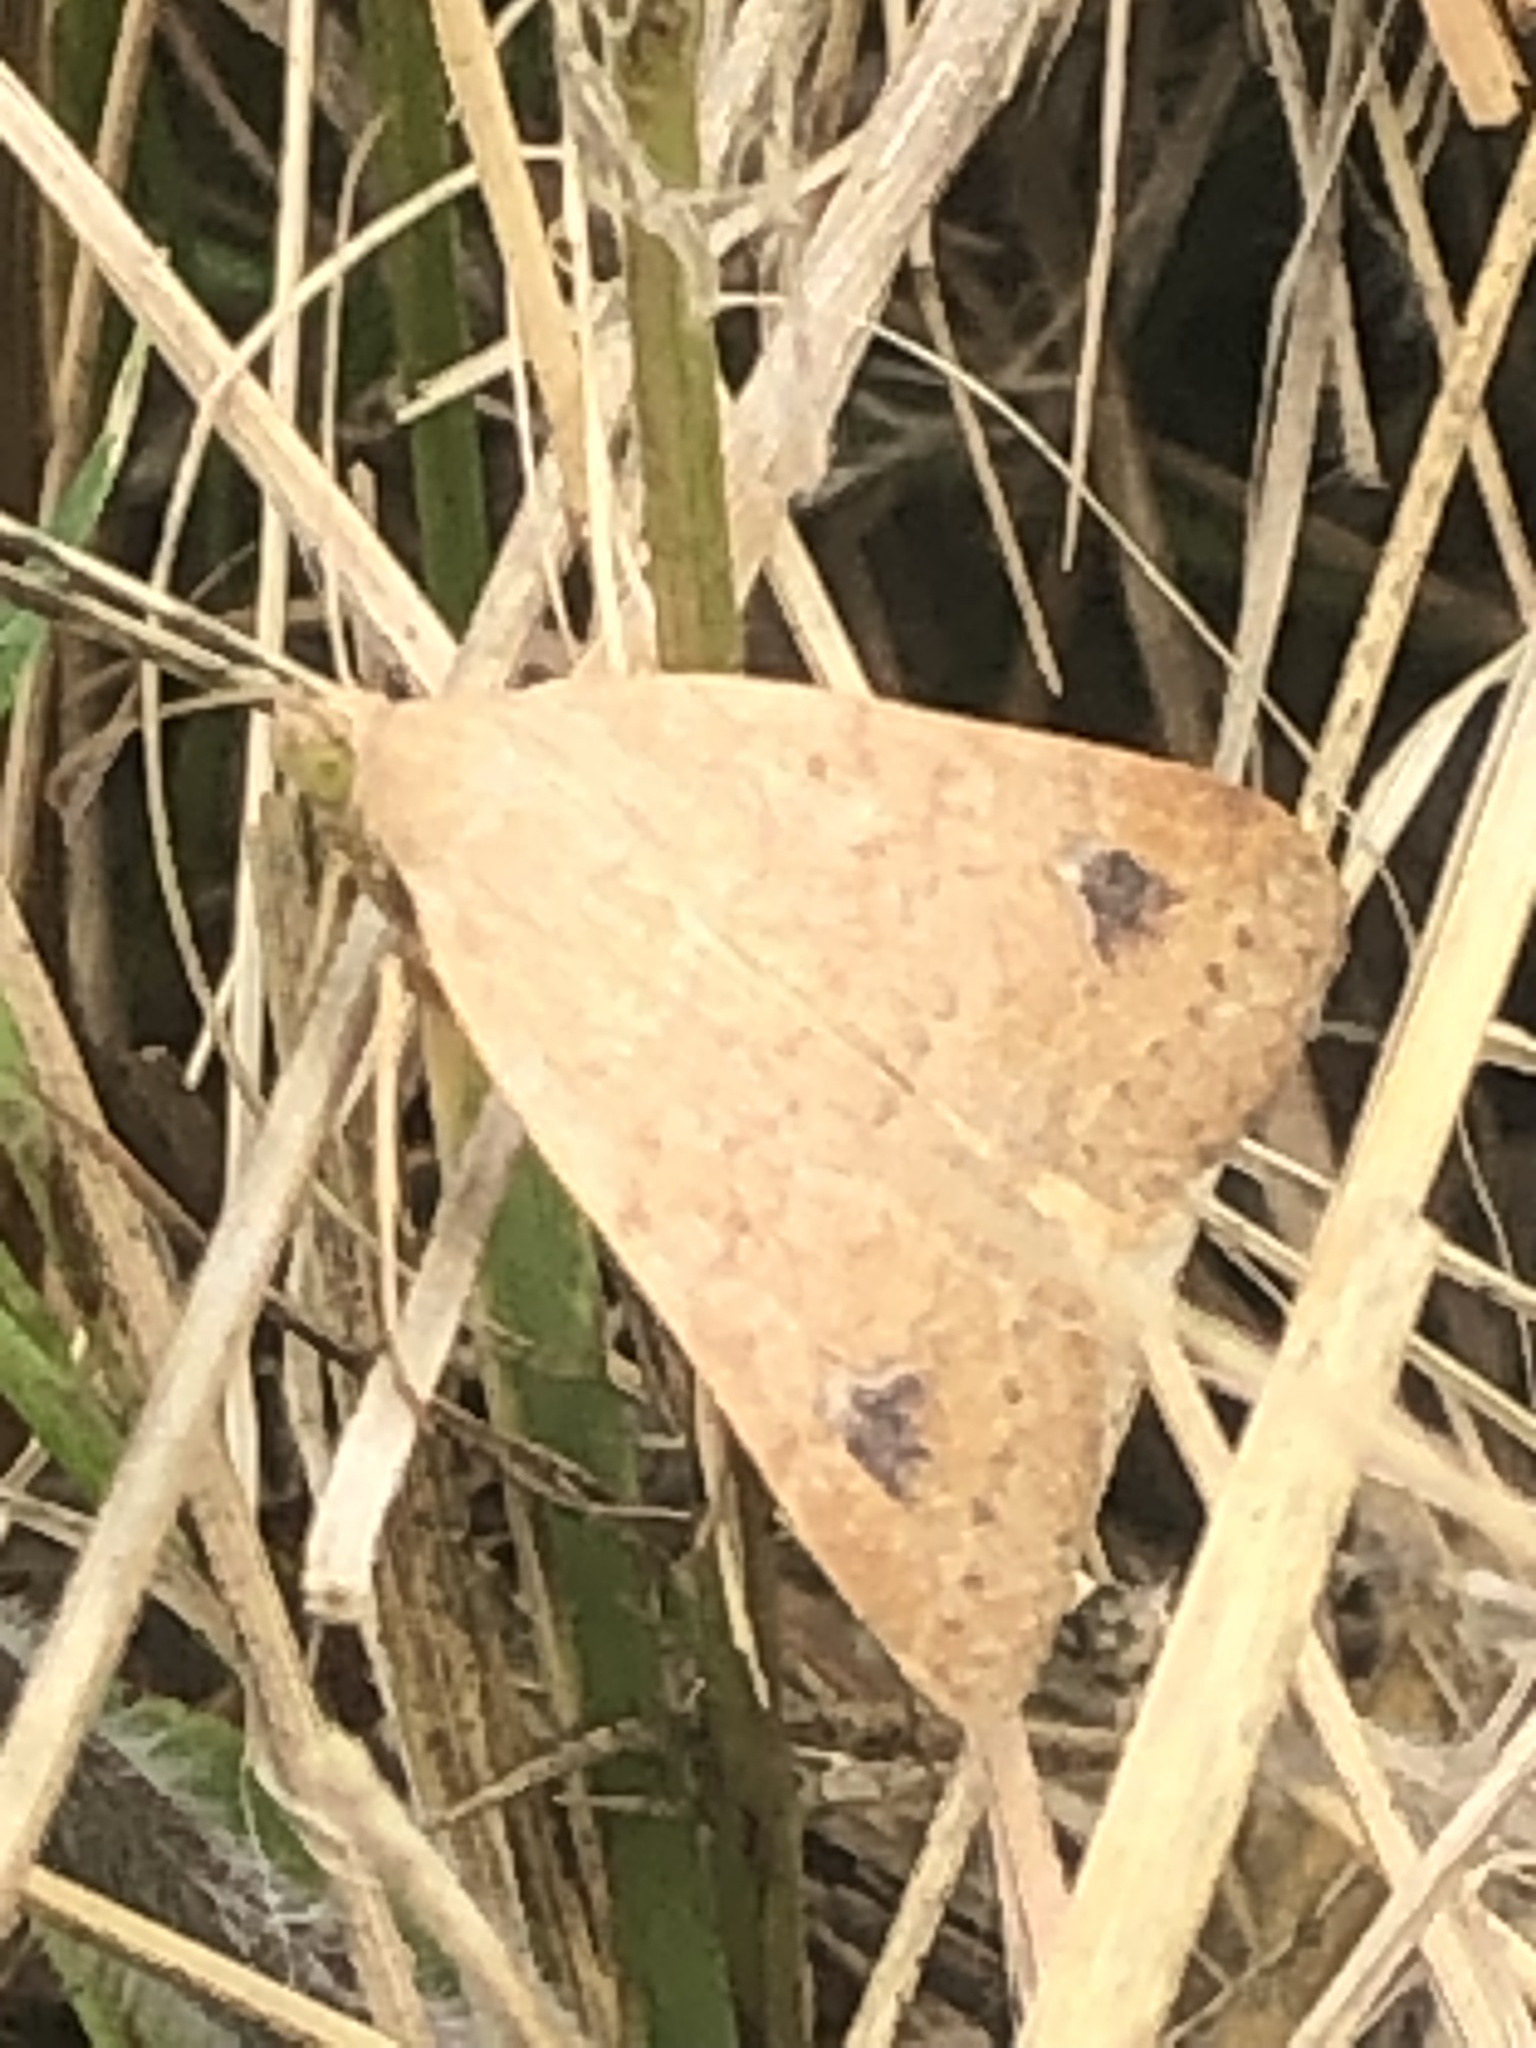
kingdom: Animalia
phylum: Arthropoda
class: Insecta
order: Lepidoptera
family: Erebidae
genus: Caenurgia
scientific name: Caenurgia chloropha
